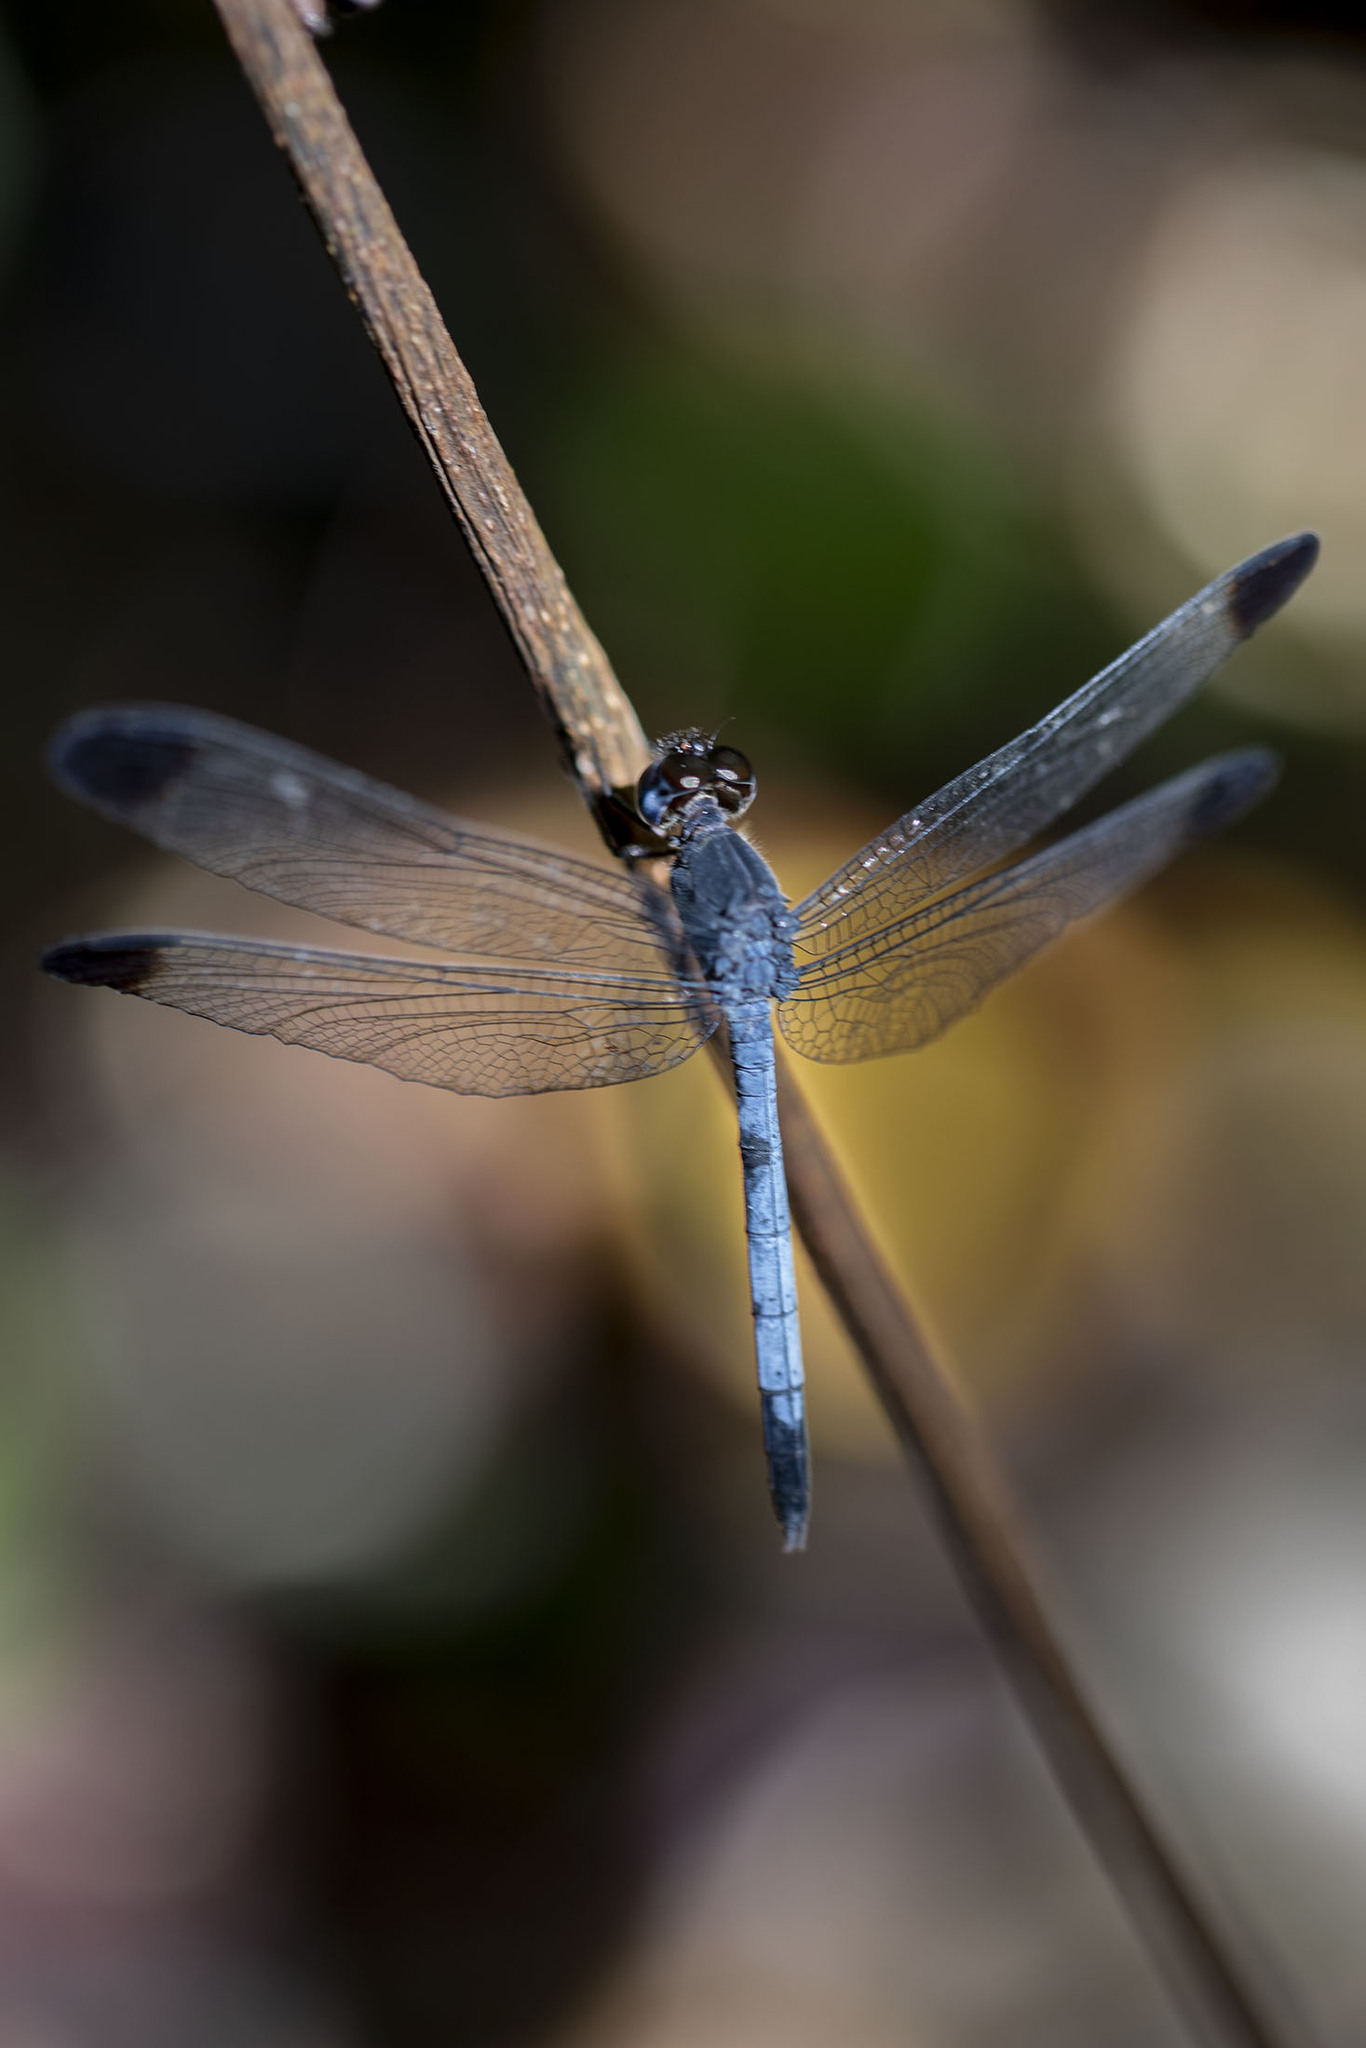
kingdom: Animalia
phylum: Arthropoda
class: Insecta
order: Odonata
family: Libellulidae
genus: Uracis
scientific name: Uracis fastigiata
